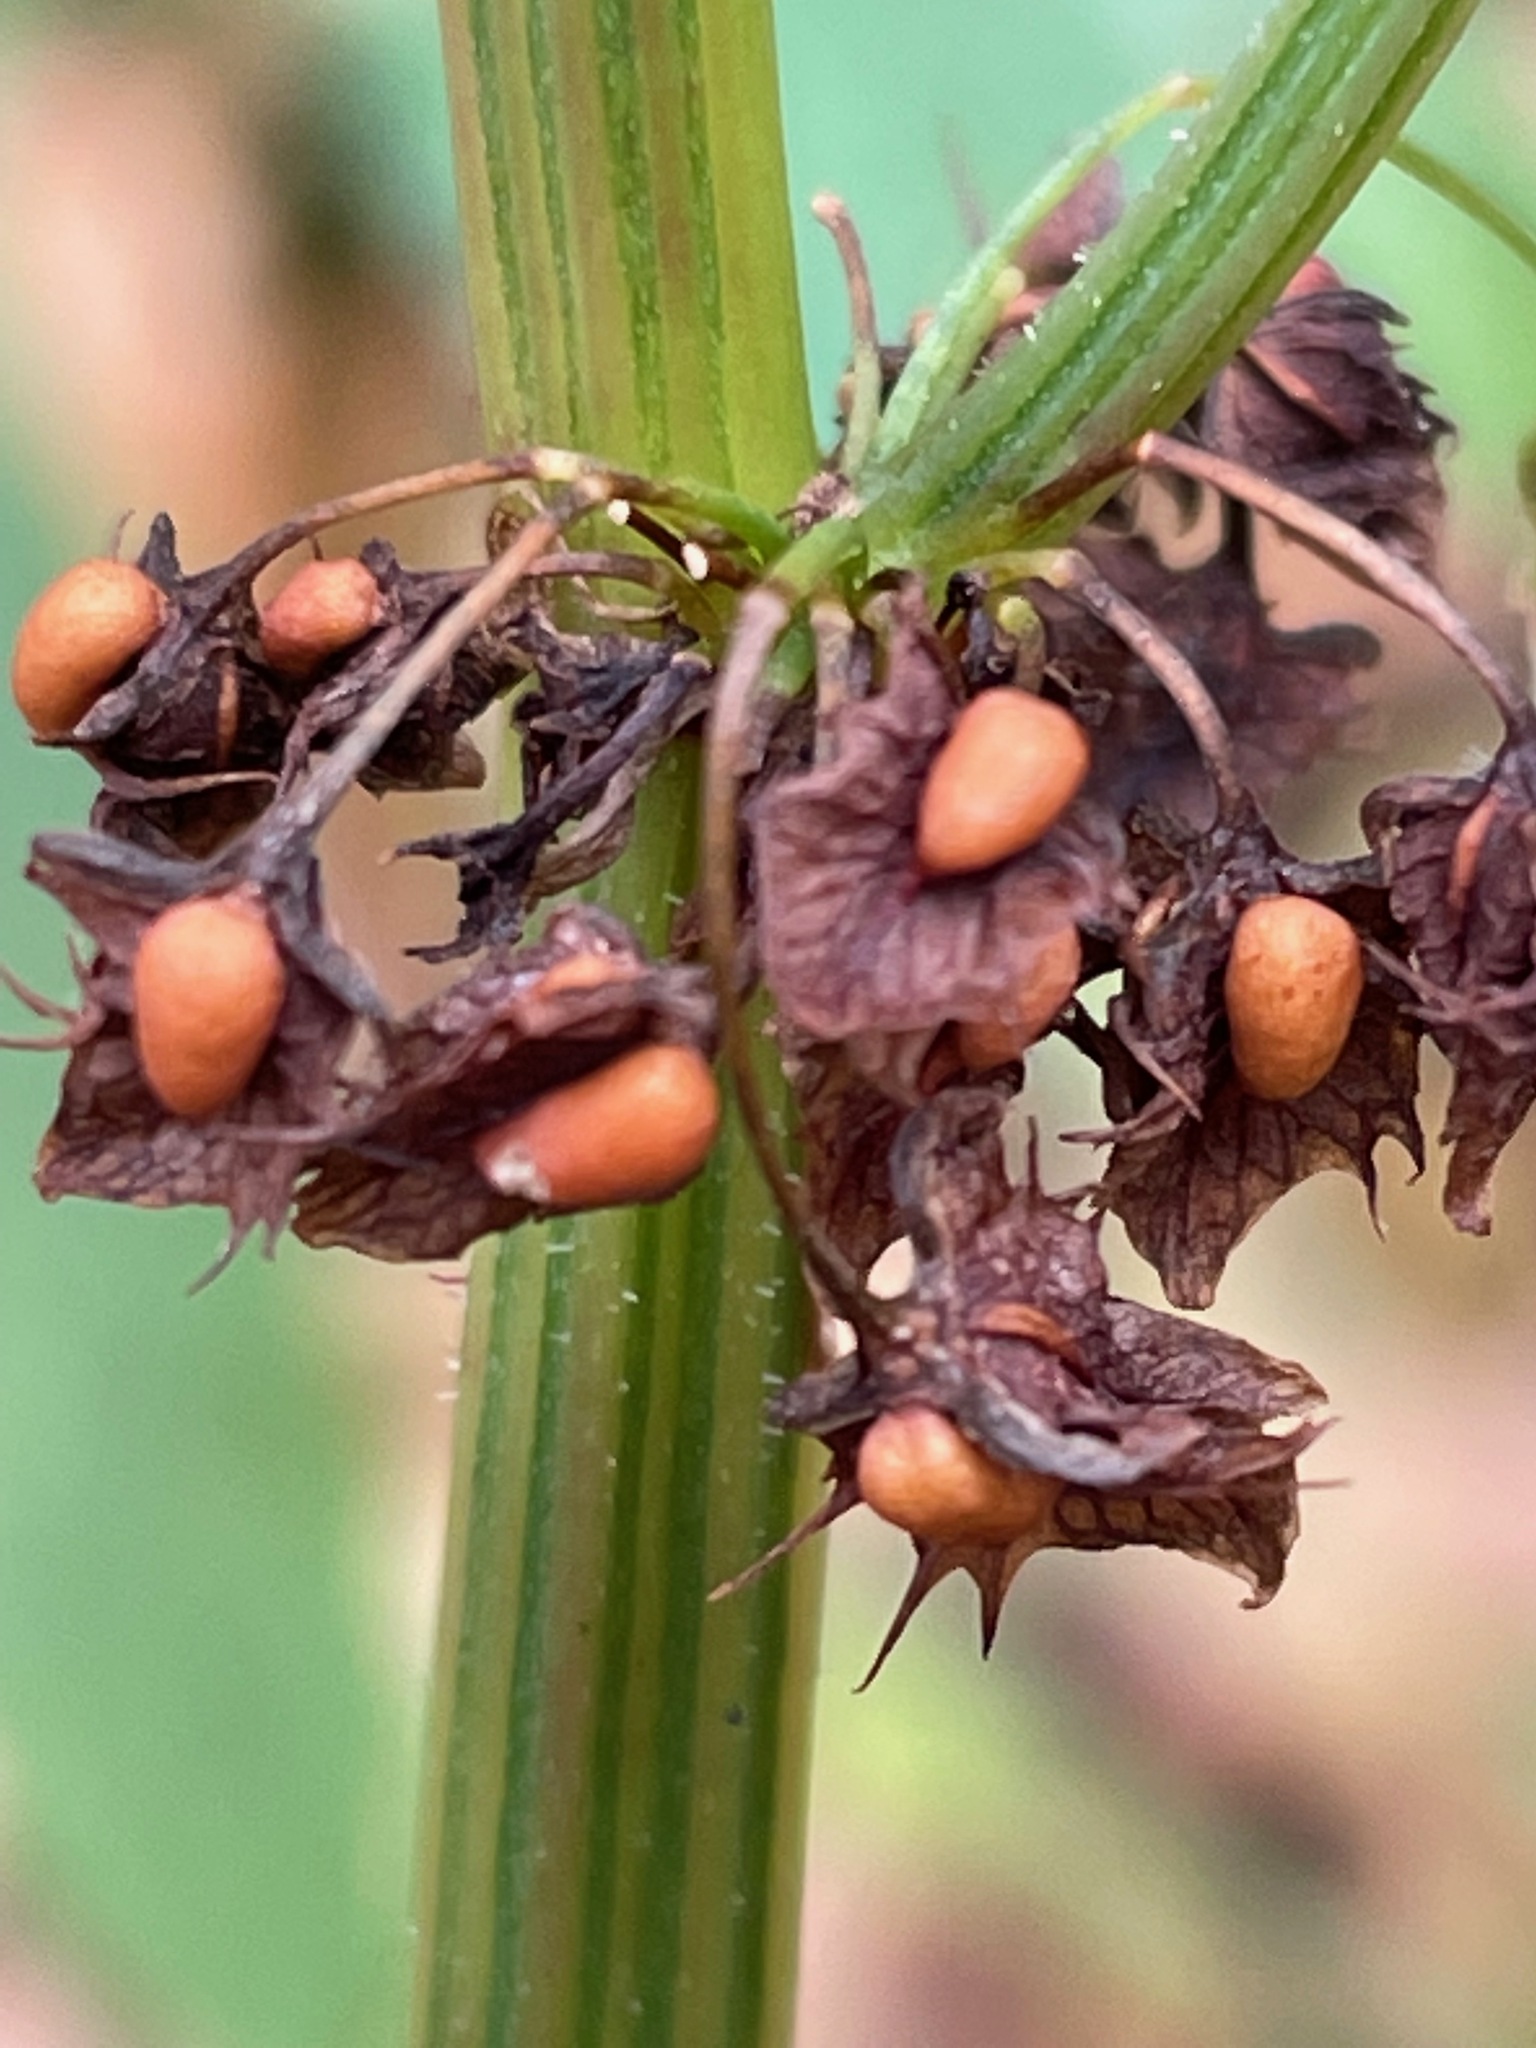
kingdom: Plantae
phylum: Tracheophyta
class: Magnoliopsida
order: Caryophyllales
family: Polygonaceae
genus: Rumex
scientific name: Rumex obtusifolius
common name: Bitter dock
